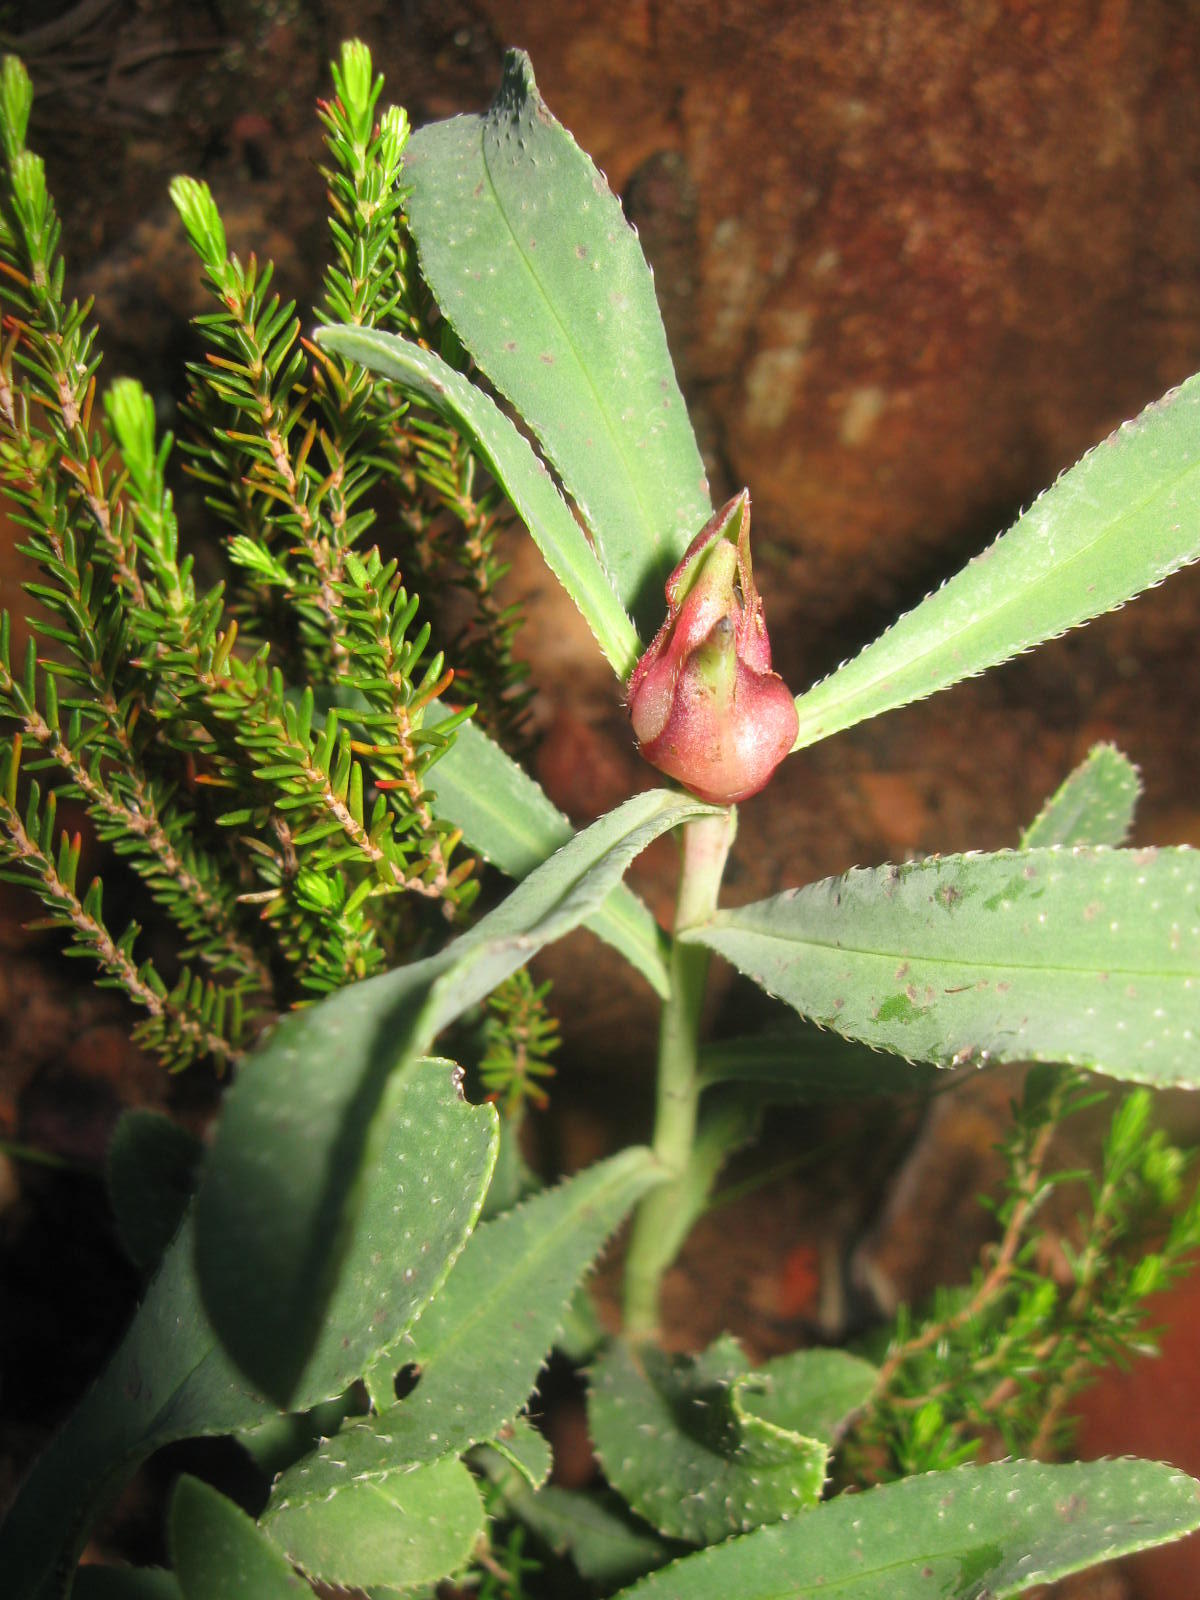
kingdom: Plantae
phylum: Tracheophyta
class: Magnoliopsida
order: Boraginales
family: Boraginaceae
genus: Lobostemon
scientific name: Lobostemon glaucophyllus
